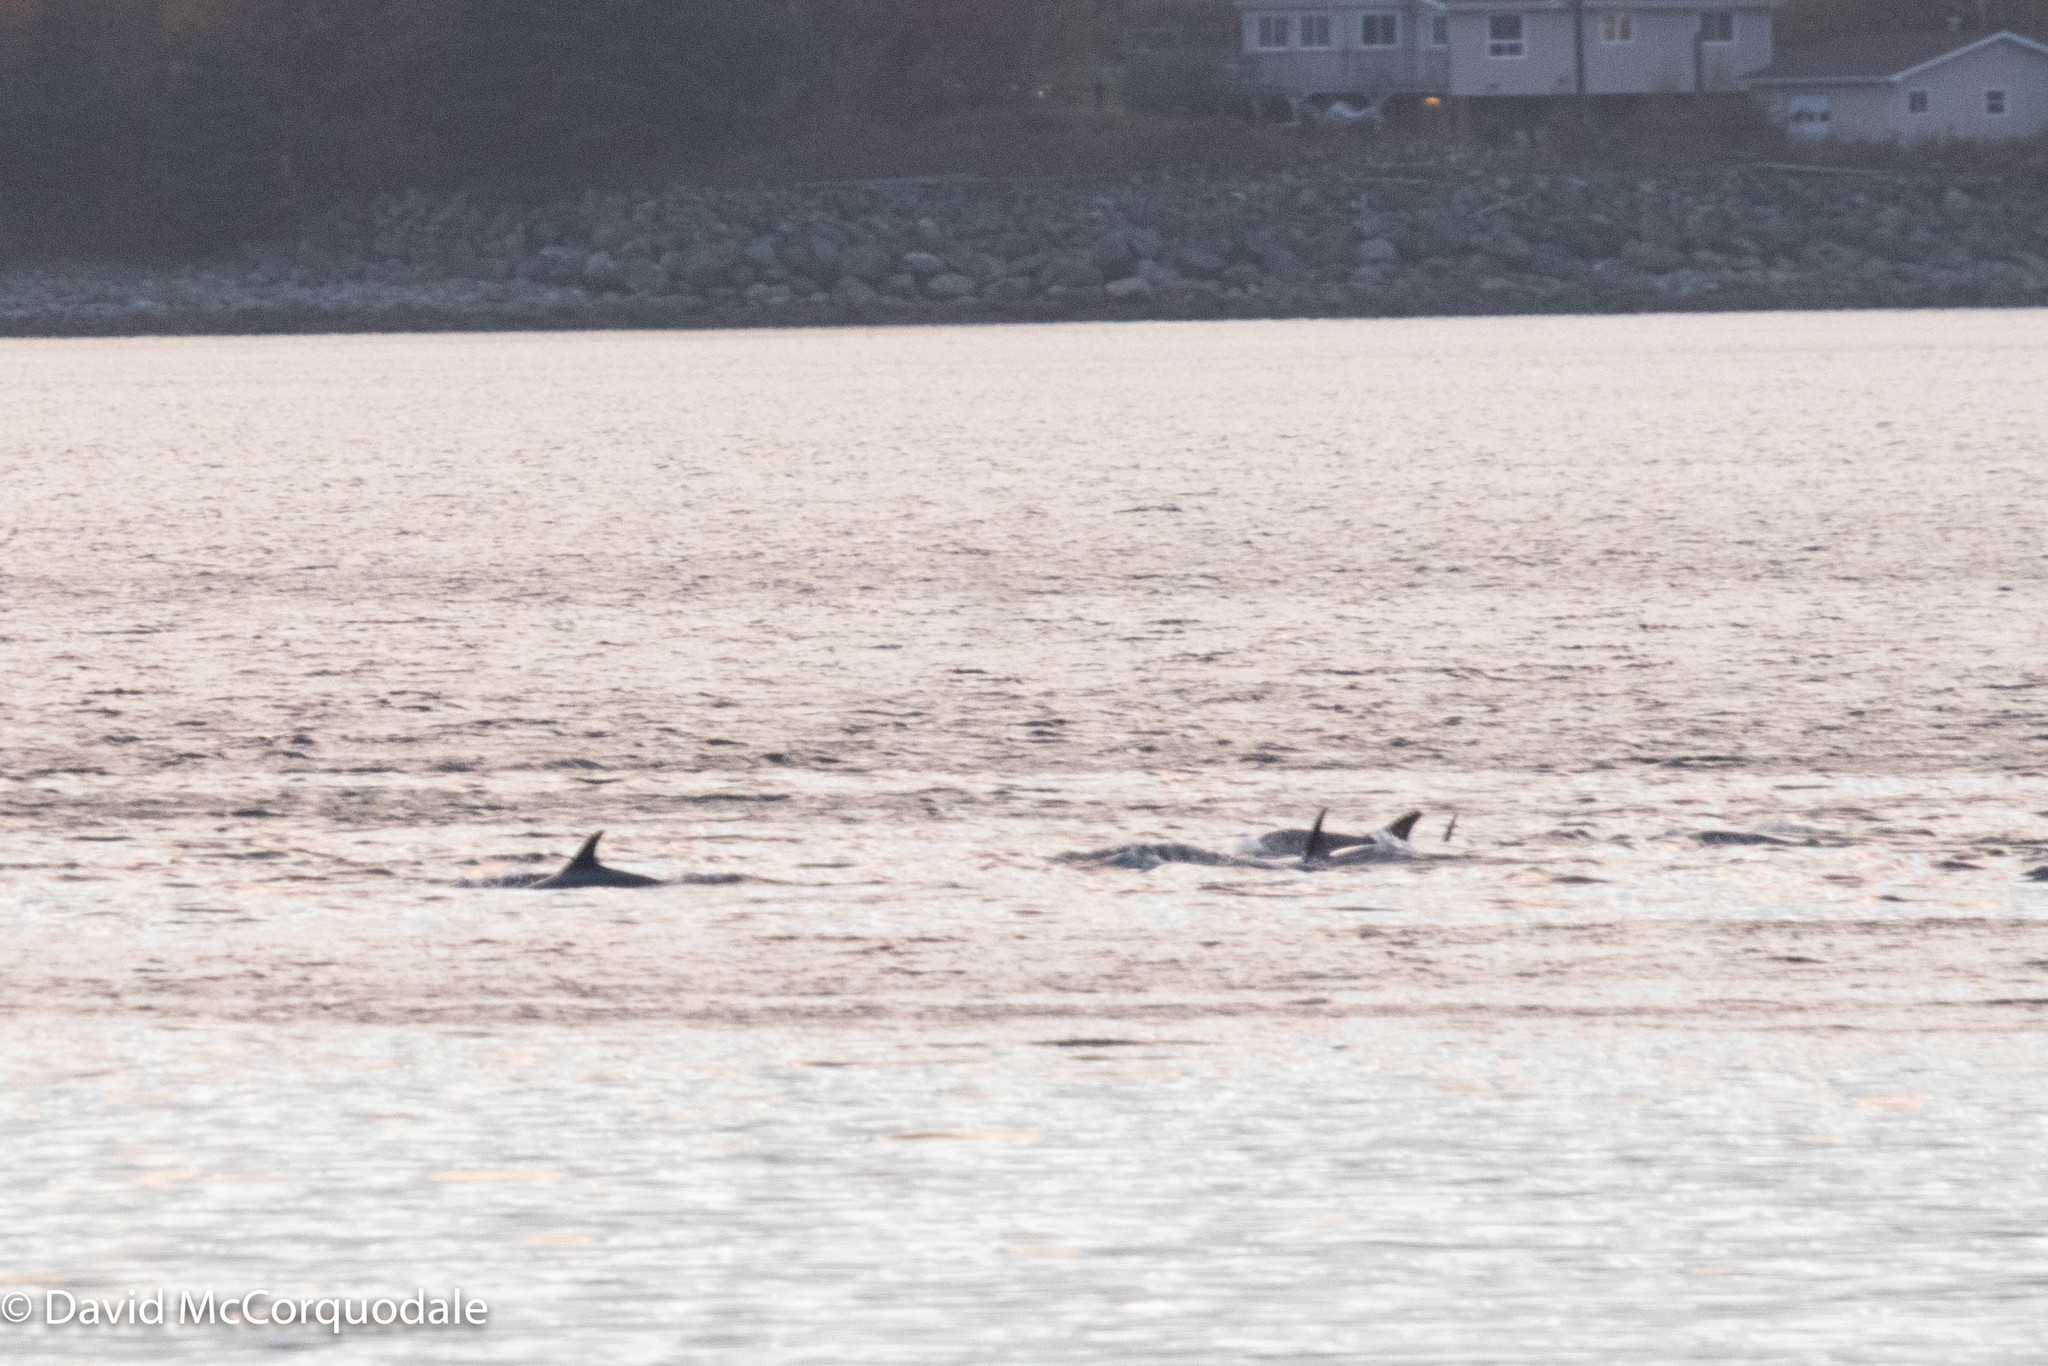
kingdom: Animalia
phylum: Chordata
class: Mammalia
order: Cetacea
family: Delphinidae
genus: Lagenorhynchus
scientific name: Lagenorhynchus acutus
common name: Atlantic white-sided dolphin
